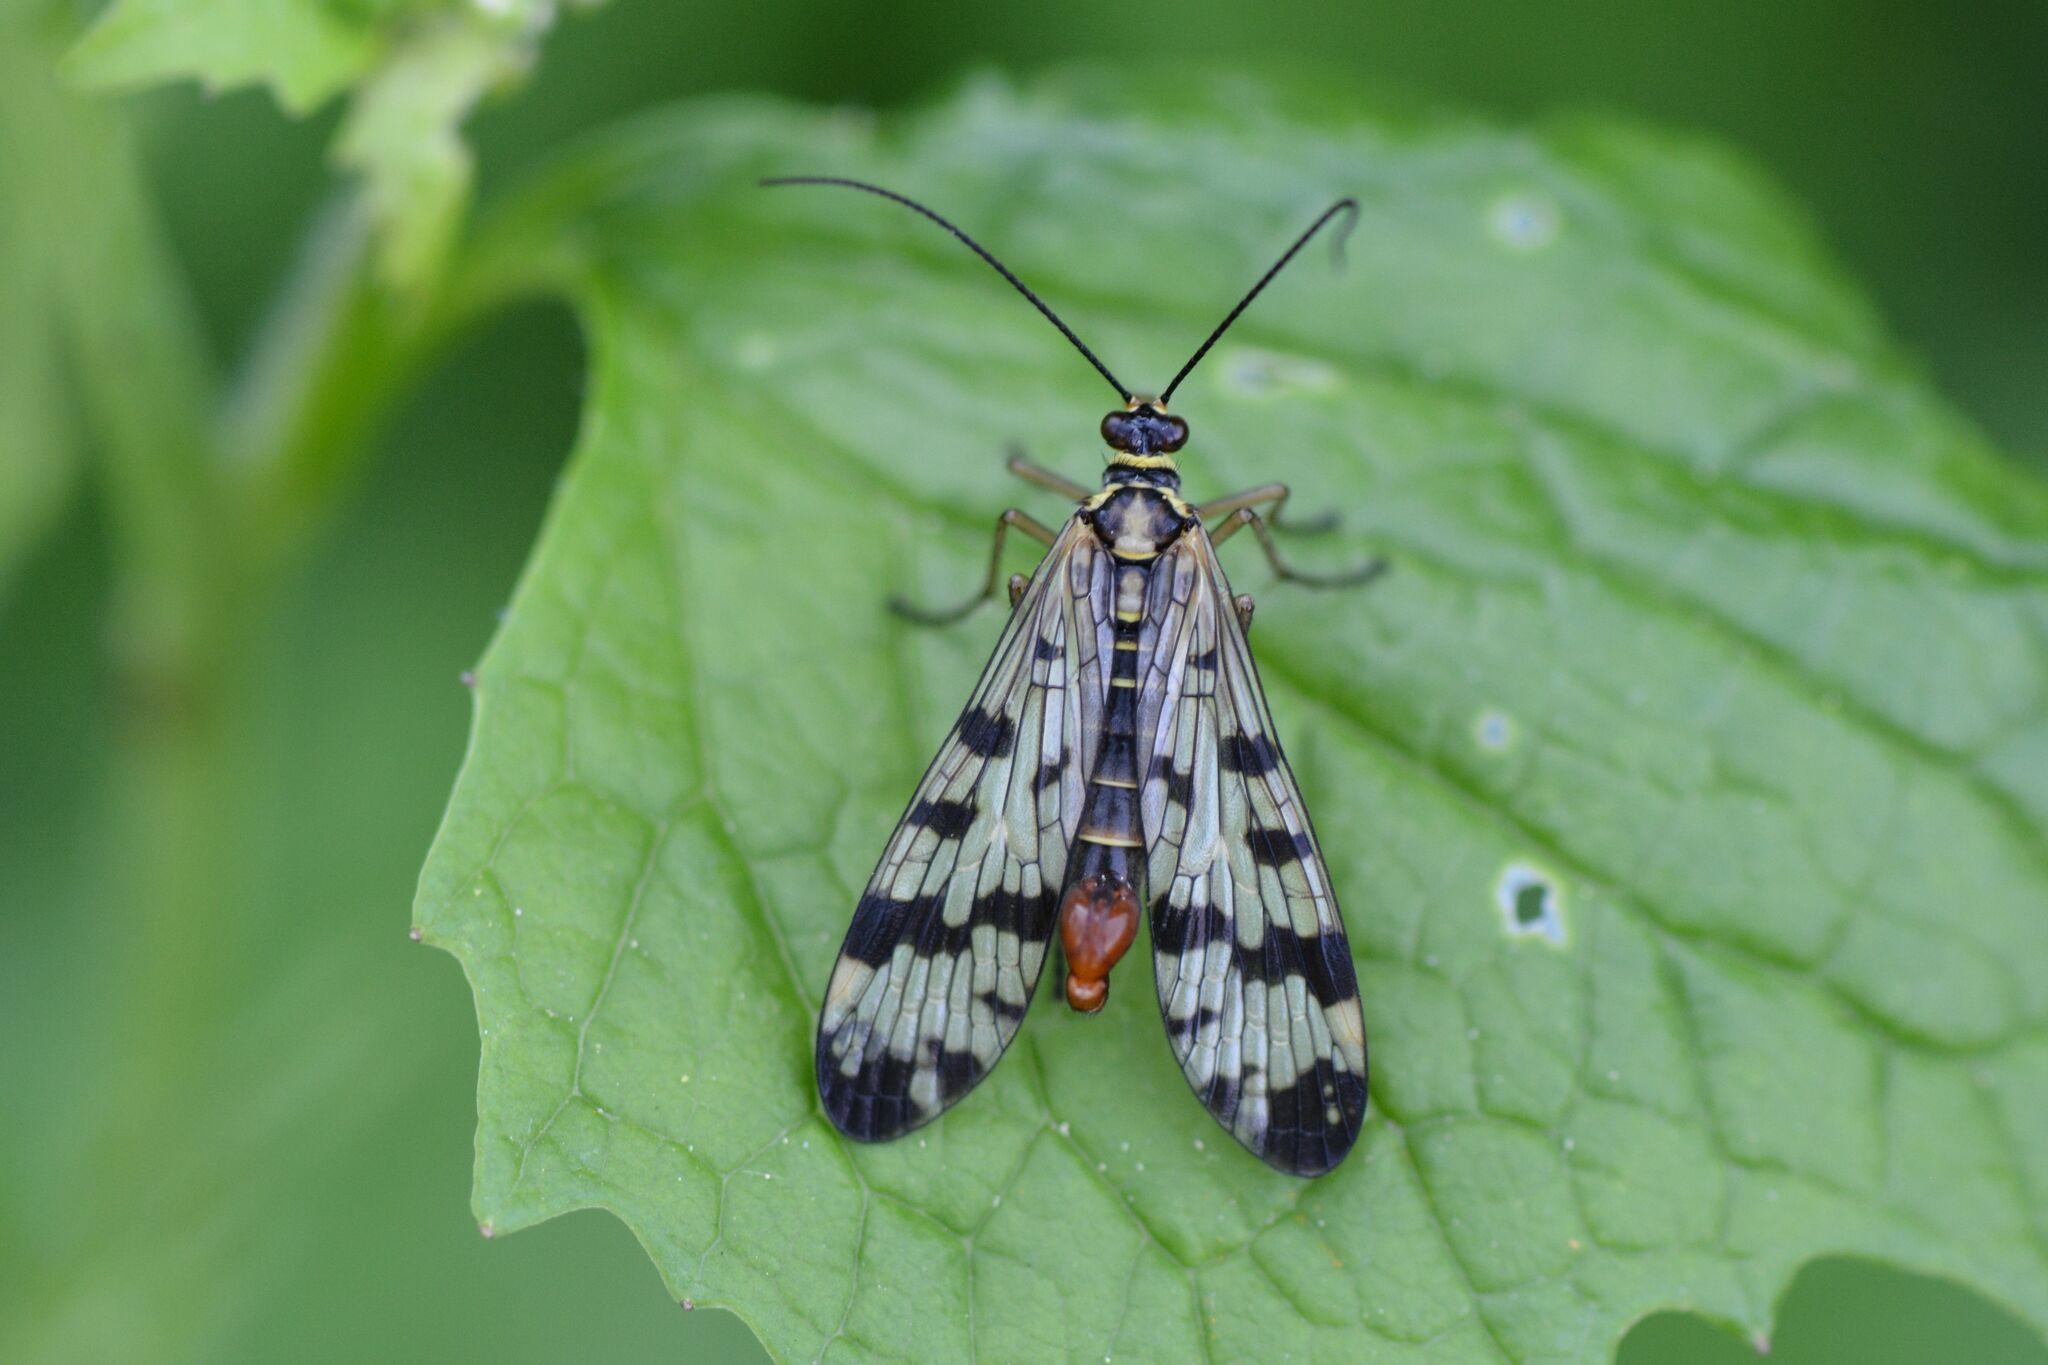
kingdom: Animalia
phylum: Arthropoda
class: Insecta
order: Mecoptera
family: Panorpidae
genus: Panorpa
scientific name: Panorpa communis
